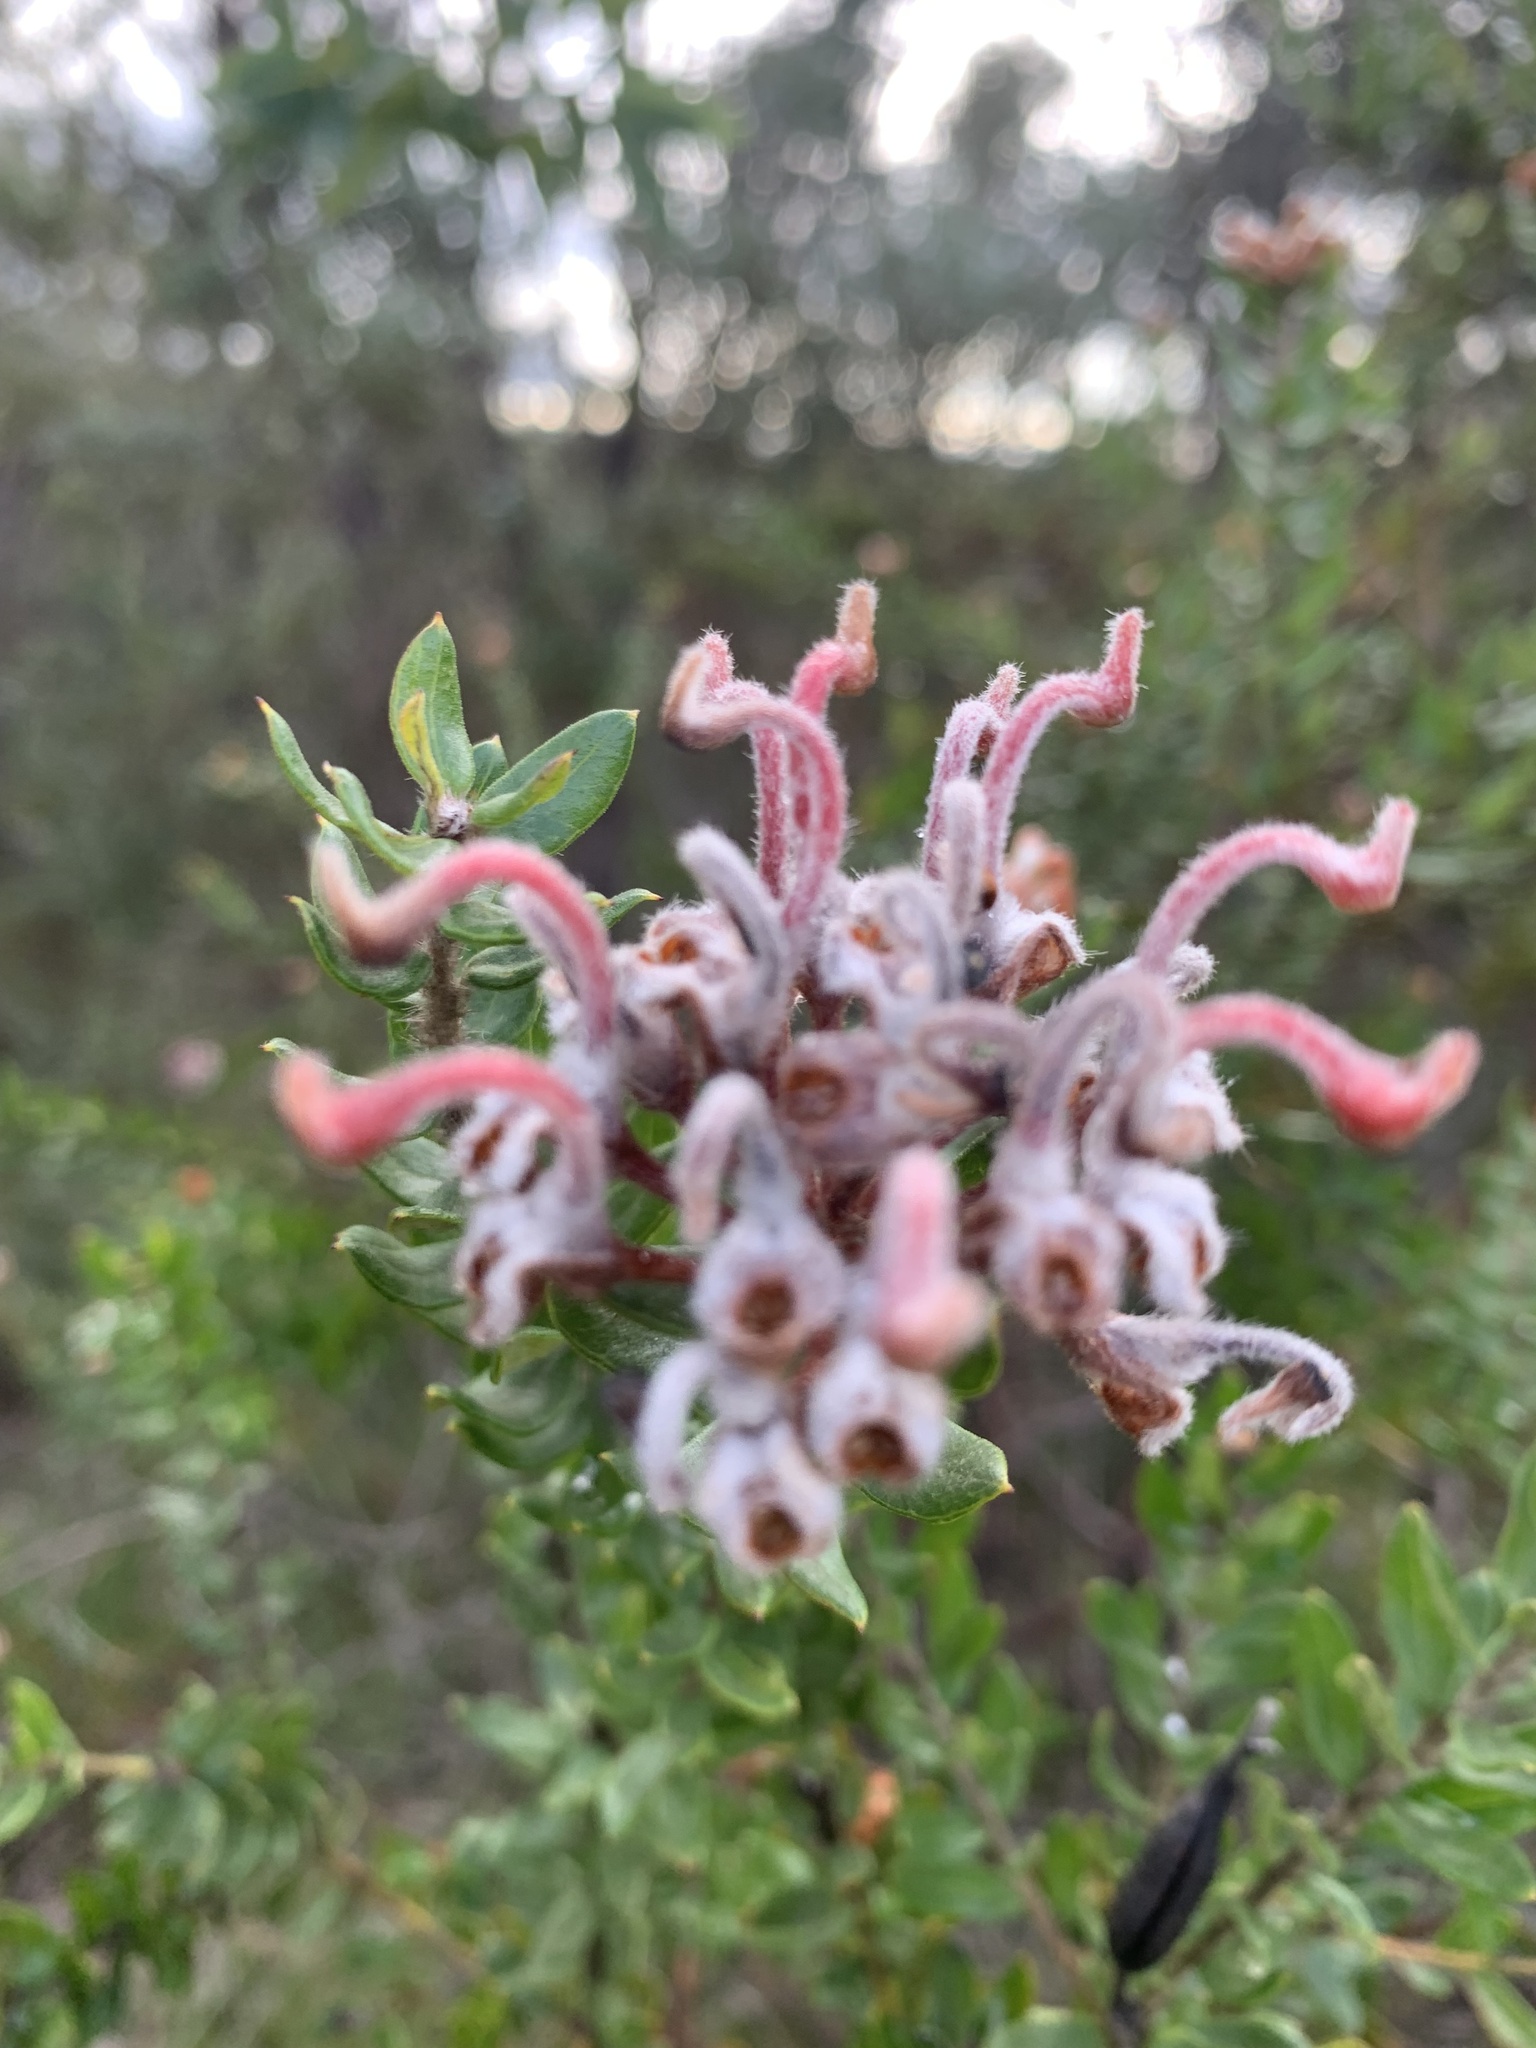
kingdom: Plantae
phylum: Tracheophyta
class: Magnoliopsida
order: Proteales
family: Proteaceae
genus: Grevillea
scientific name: Grevillea buxifolia
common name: Grey spiderflower
